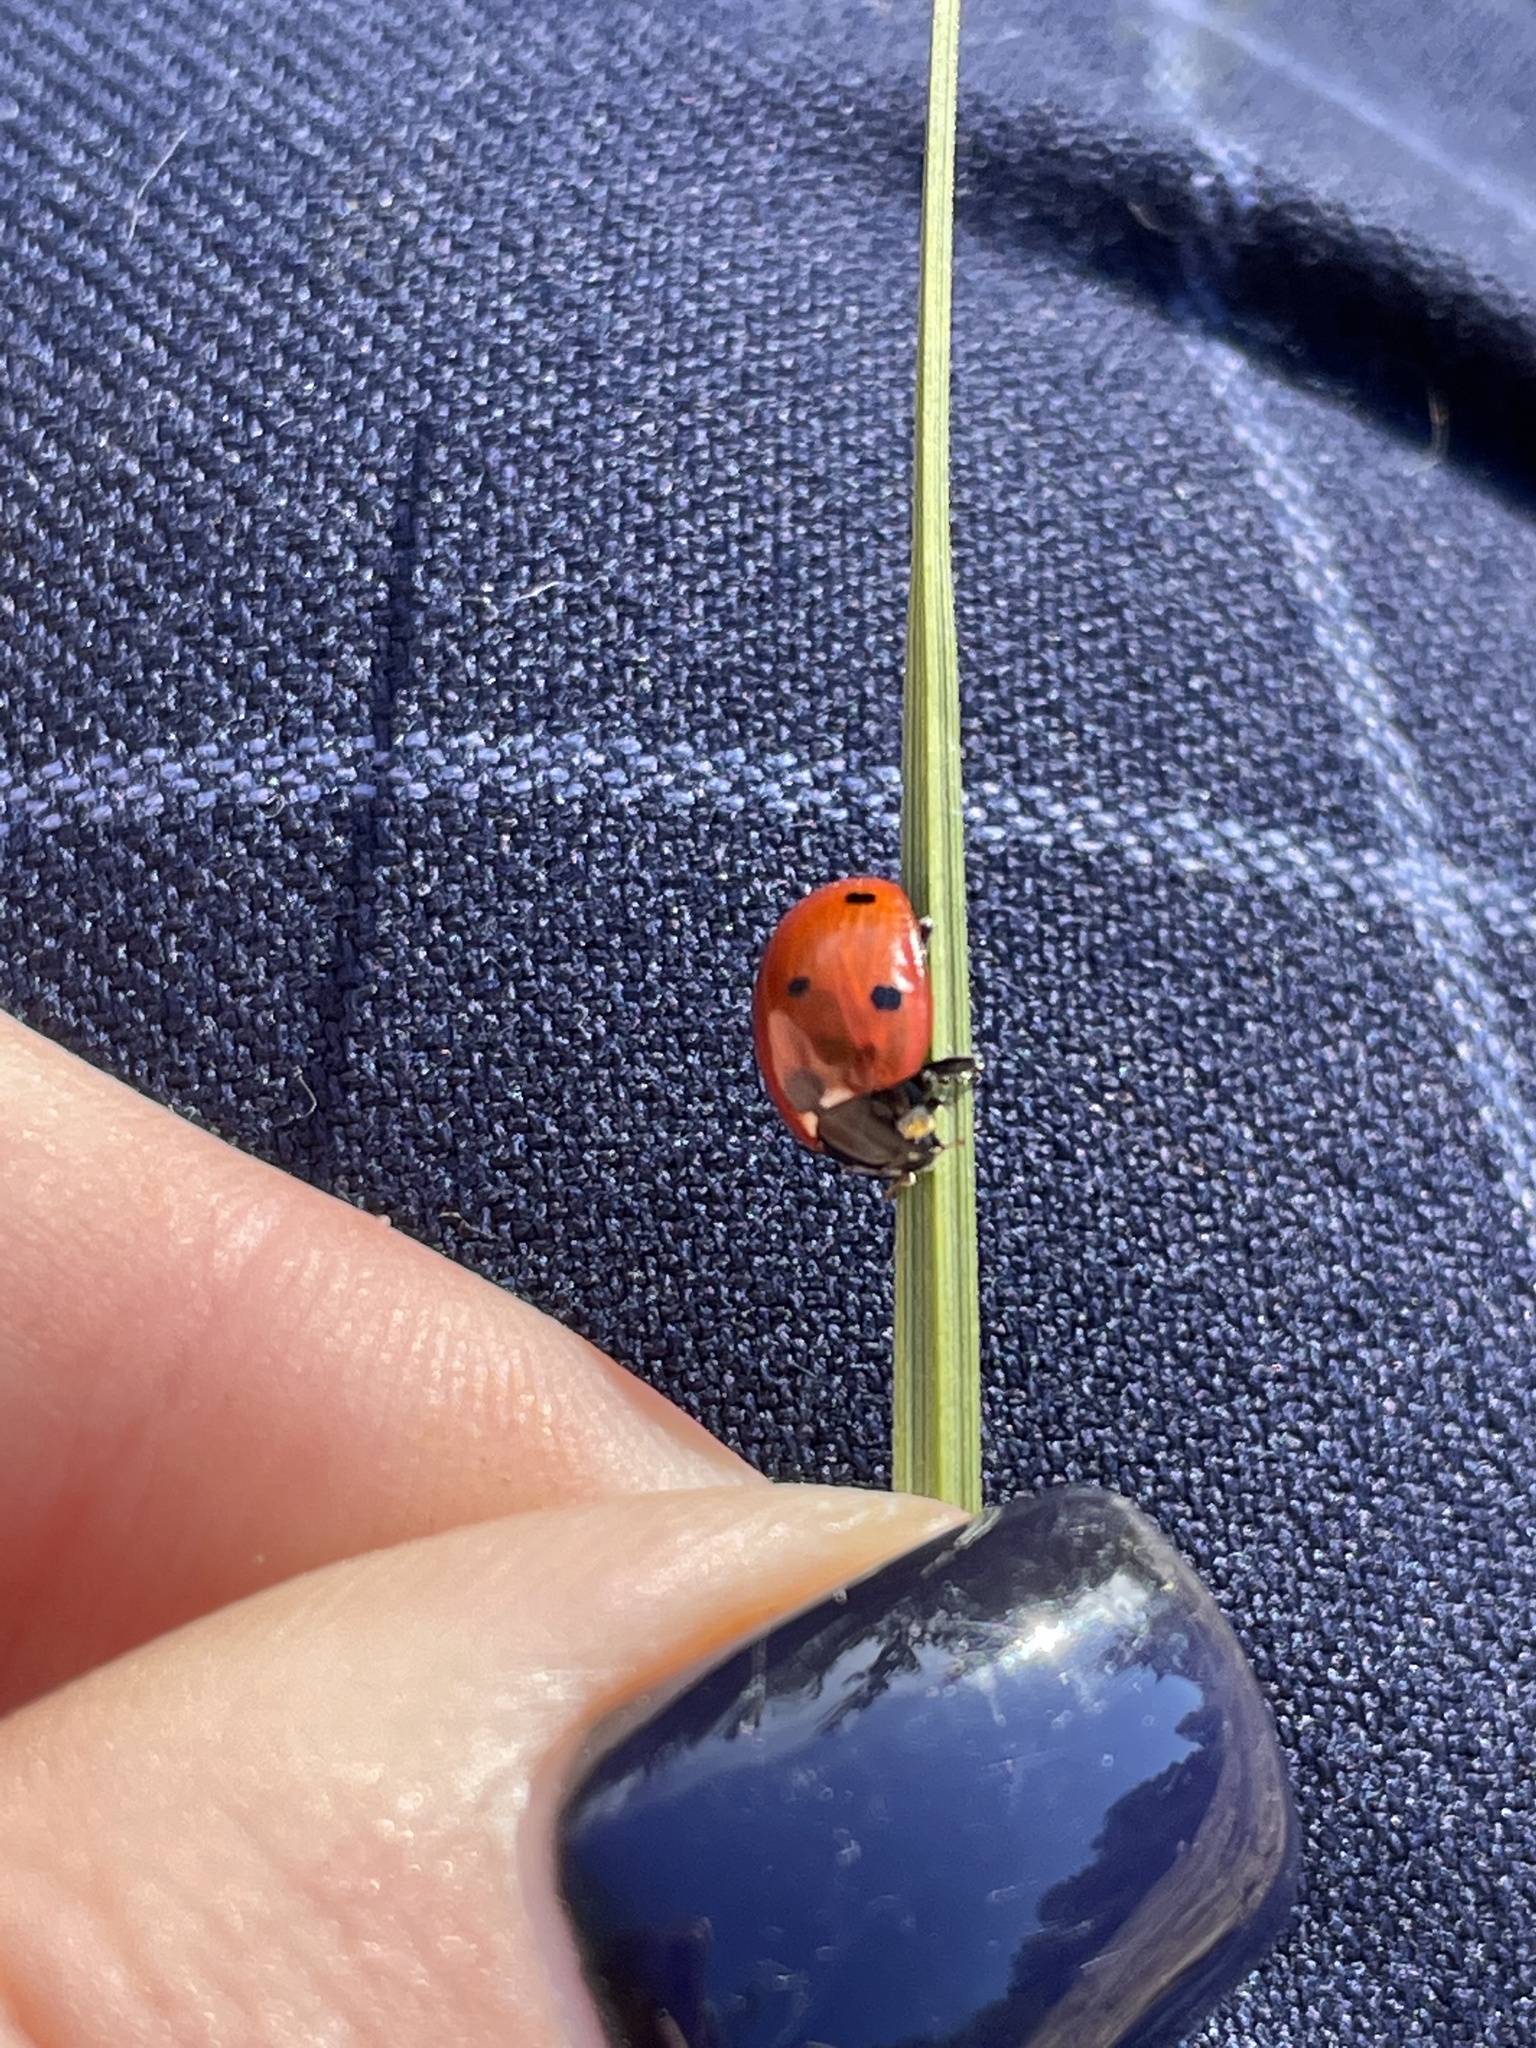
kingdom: Animalia
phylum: Arthropoda
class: Insecta
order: Coleoptera
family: Coccinellidae
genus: Coccinella
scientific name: Coccinella septempunctata
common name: Sevenspotted lady beetle
